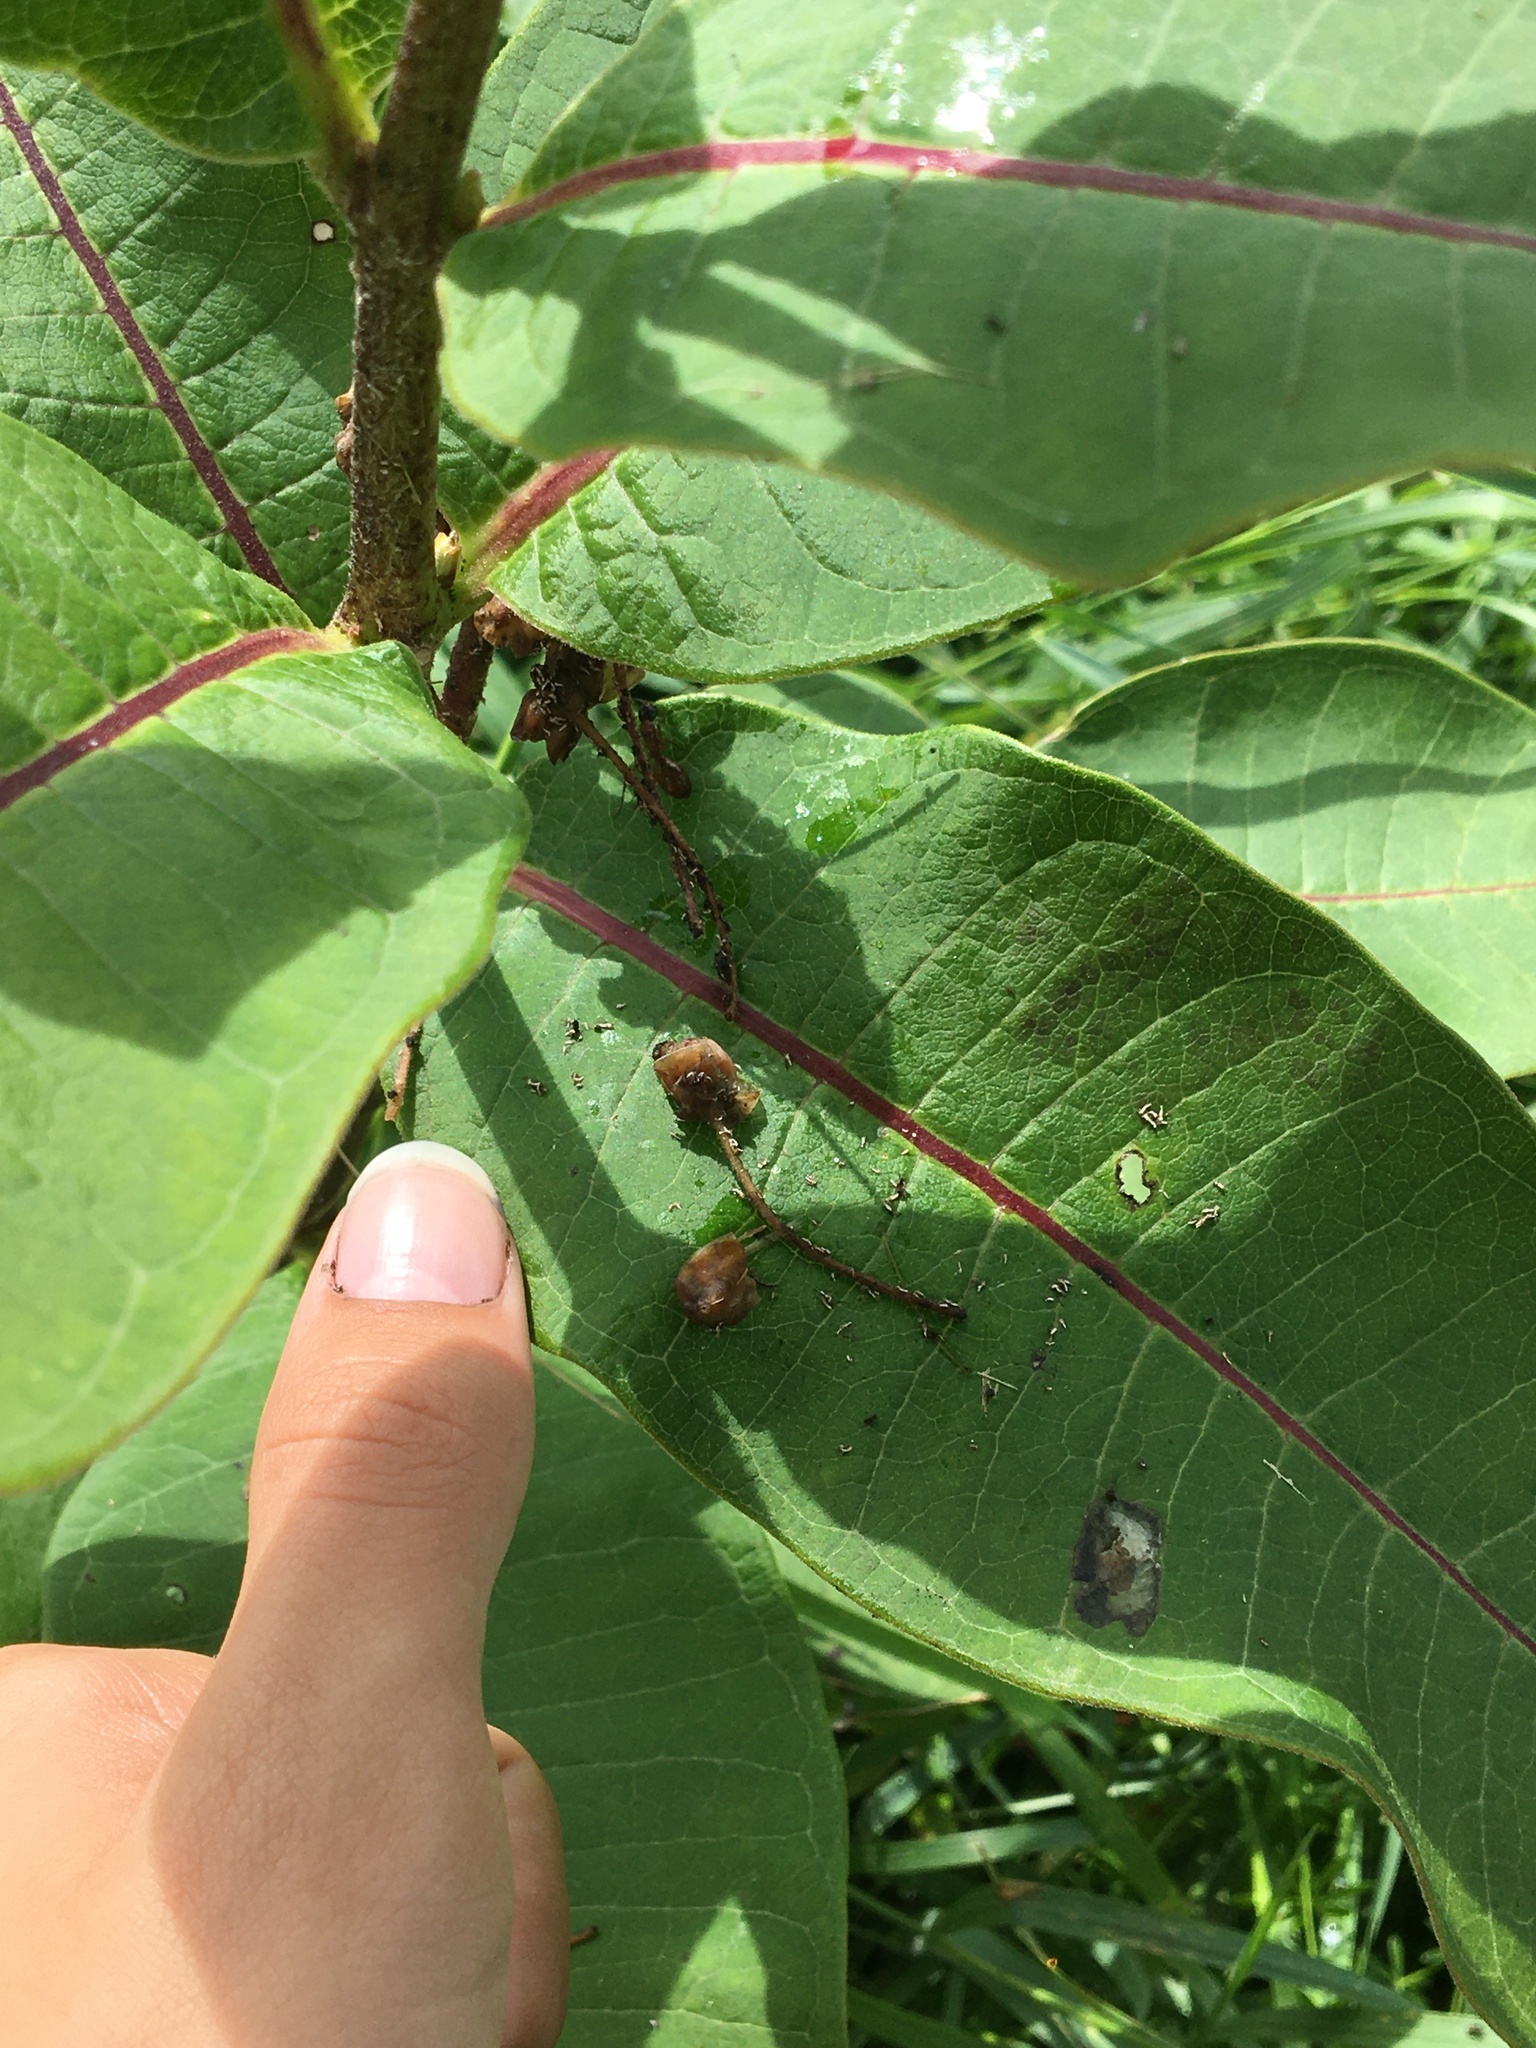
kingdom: Animalia
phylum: Arthropoda
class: Insecta
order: Hymenoptera
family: Formicidae
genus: Camponotus
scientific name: Camponotus americanus
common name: American carpenter ant
